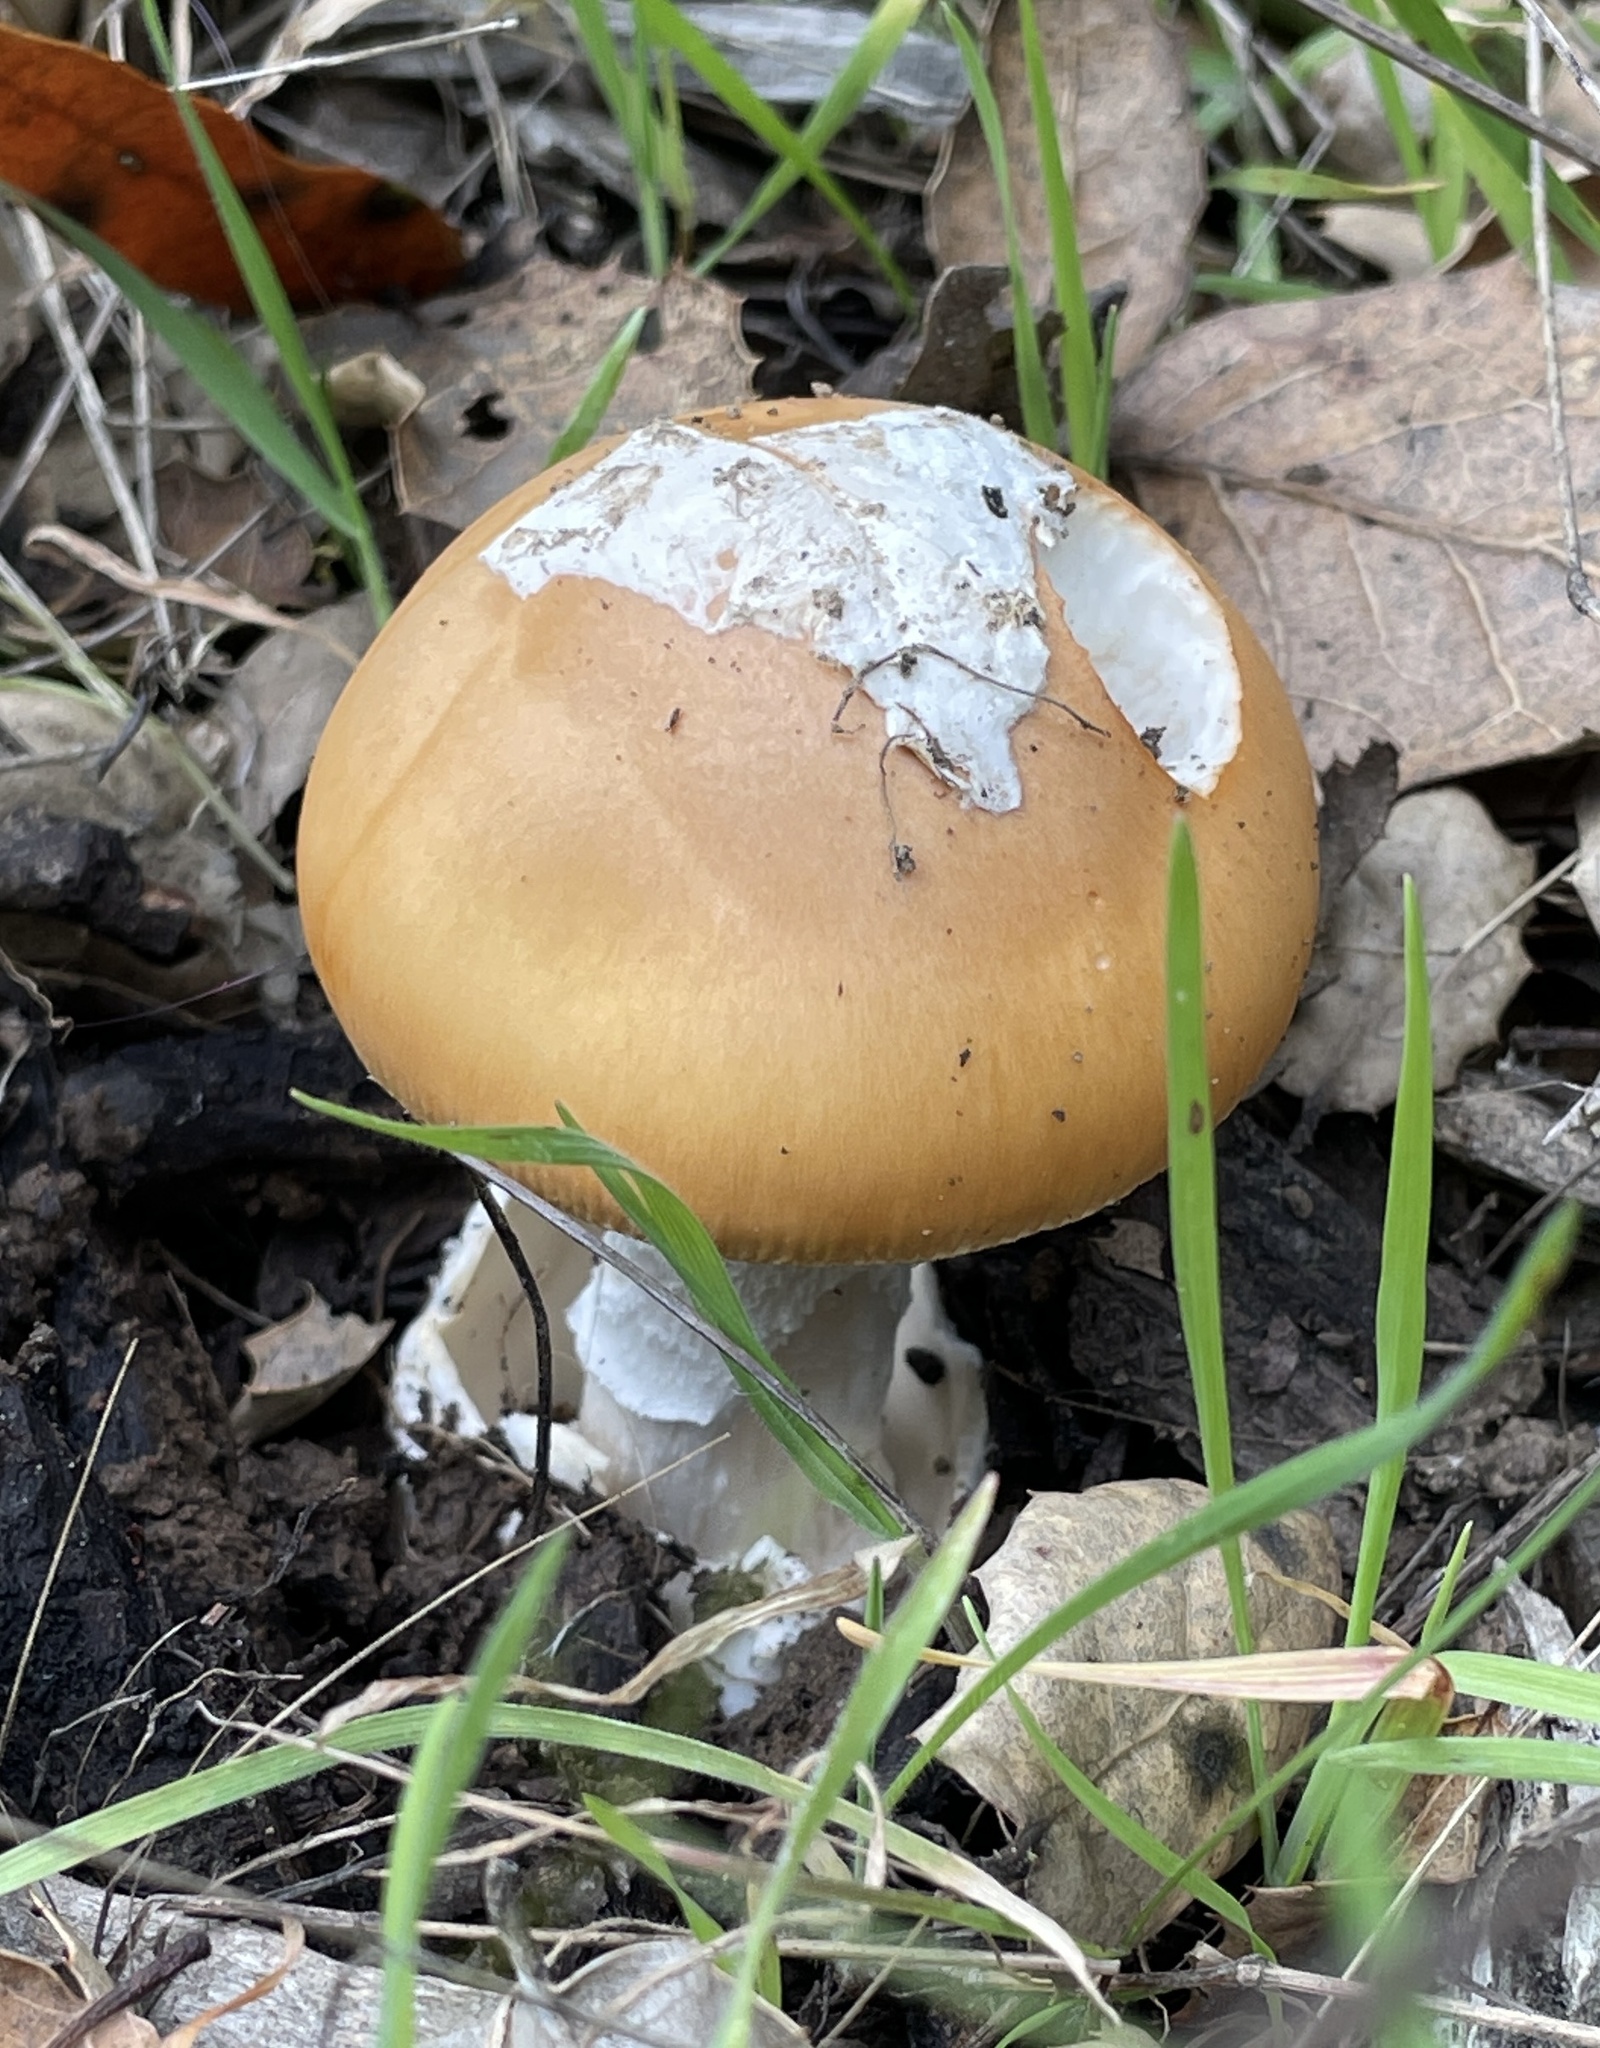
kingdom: Fungi
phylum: Basidiomycota
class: Agaricomycetes
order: Agaricales
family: Amanitaceae
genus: Amanita
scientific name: Amanita velosa
